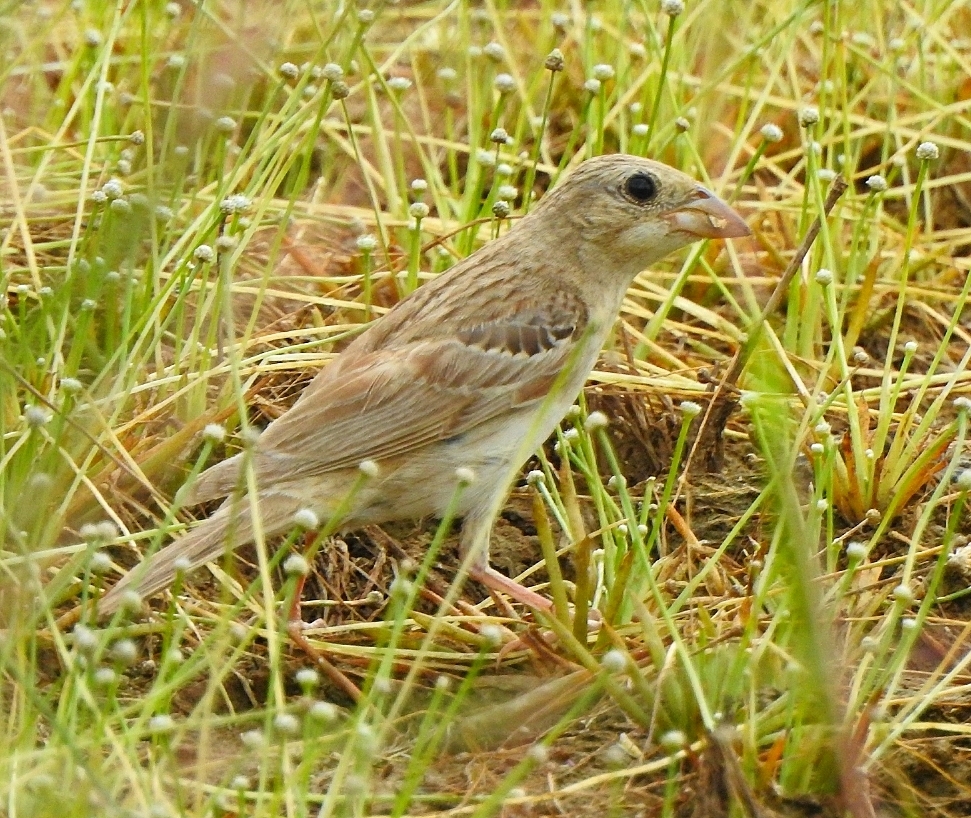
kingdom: Animalia
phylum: Chordata
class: Aves
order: Passeriformes
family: Emberizidae
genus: Emberiza
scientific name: Emberiza melanocephala
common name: Black-headed bunting
